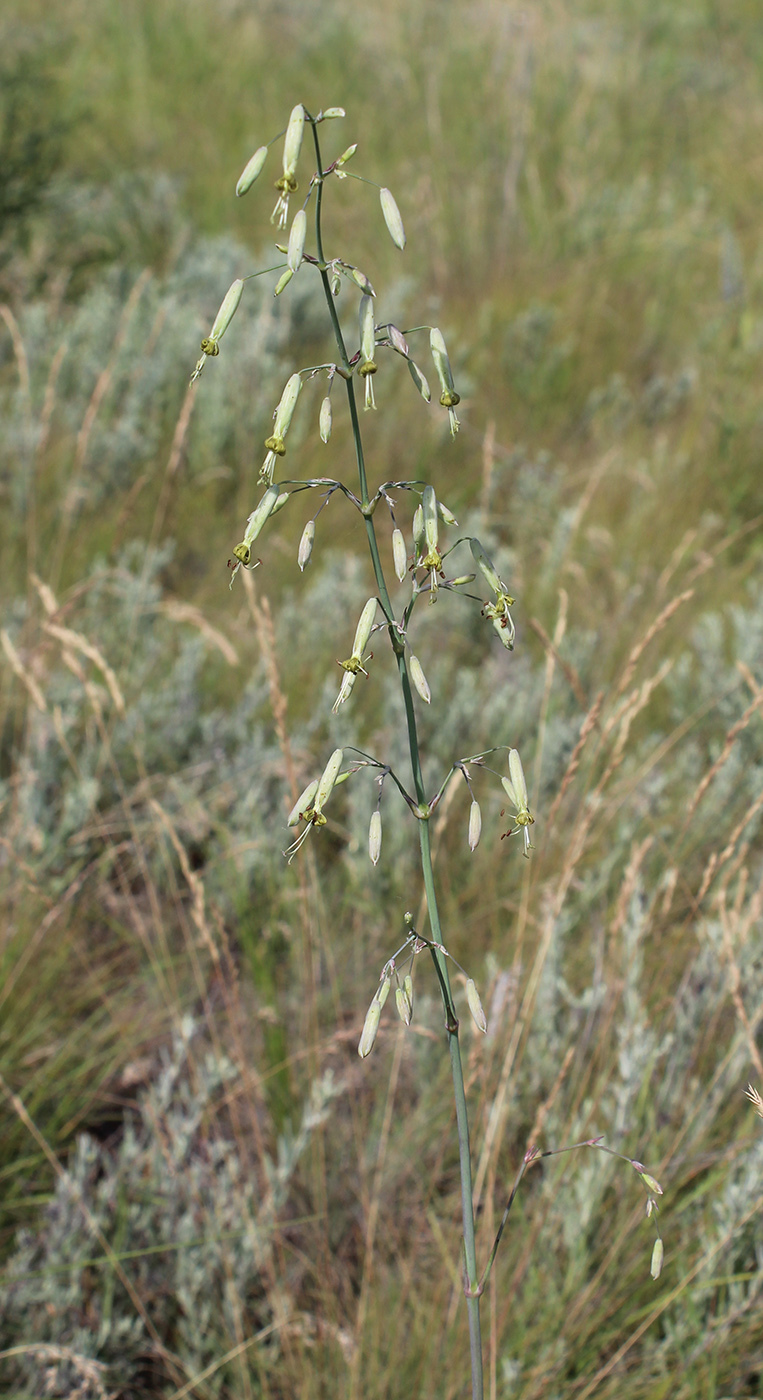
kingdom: Plantae
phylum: Tracheophyta
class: Magnoliopsida
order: Caryophyllales
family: Caryophyllaceae
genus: Silene
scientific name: Silene chlorantha
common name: Yellowgreen catchfly
